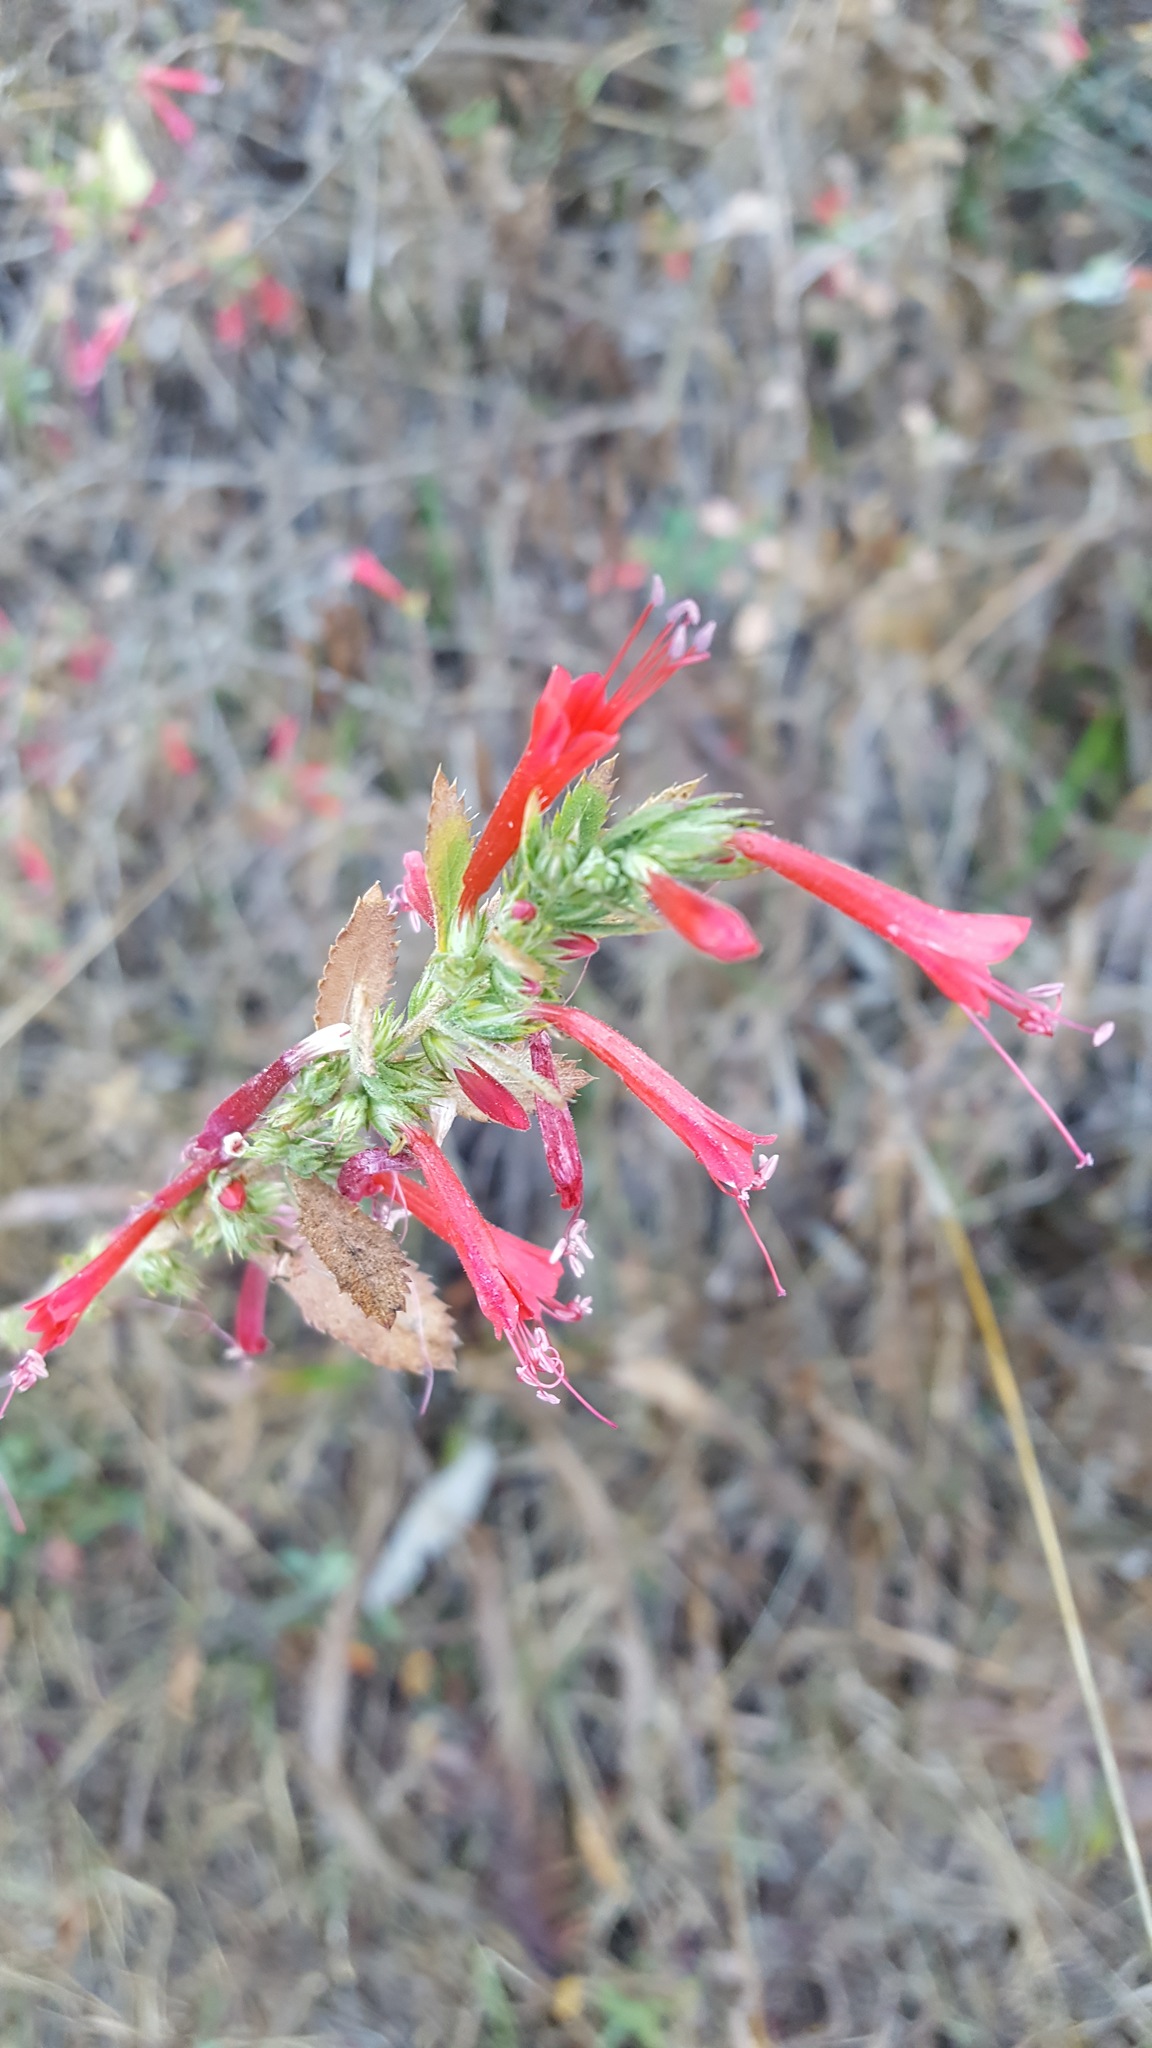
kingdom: Plantae
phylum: Tracheophyta
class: Magnoliopsida
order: Ericales
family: Polemoniaceae
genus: Loeselia
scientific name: Loeselia mexicana
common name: Mexican false calico
